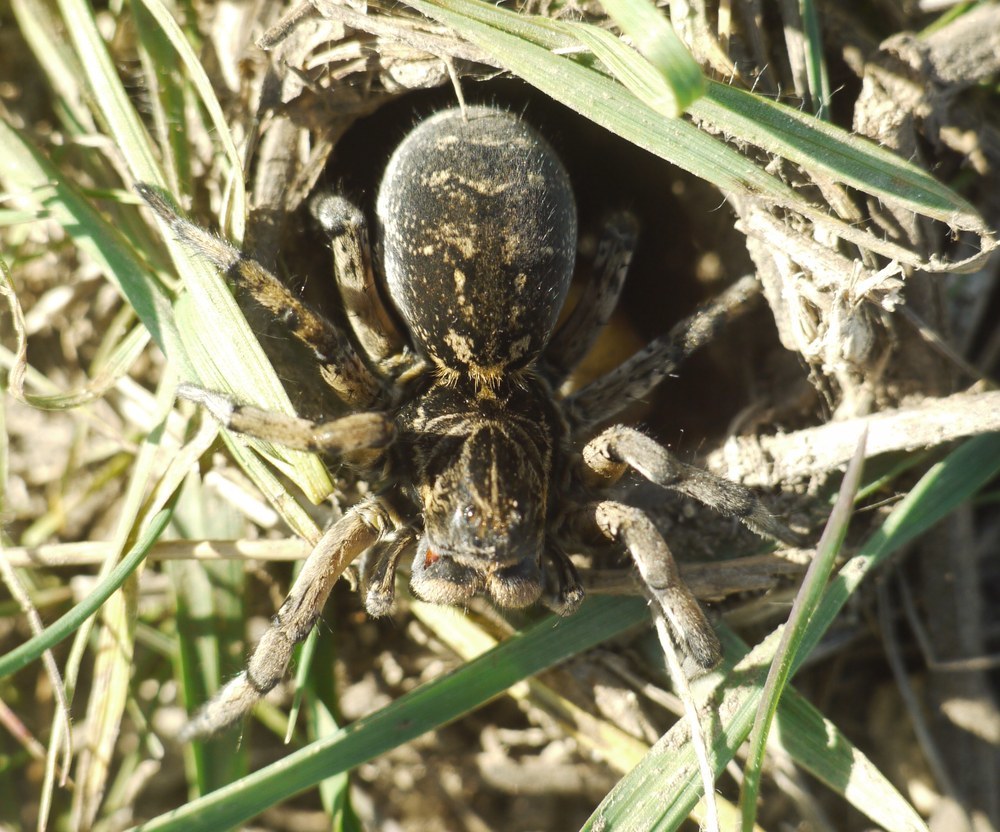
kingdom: Animalia
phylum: Arthropoda
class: Arachnida
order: Araneae
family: Lycosidae
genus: Geolycosa
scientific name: Geolycosa vultuosa
